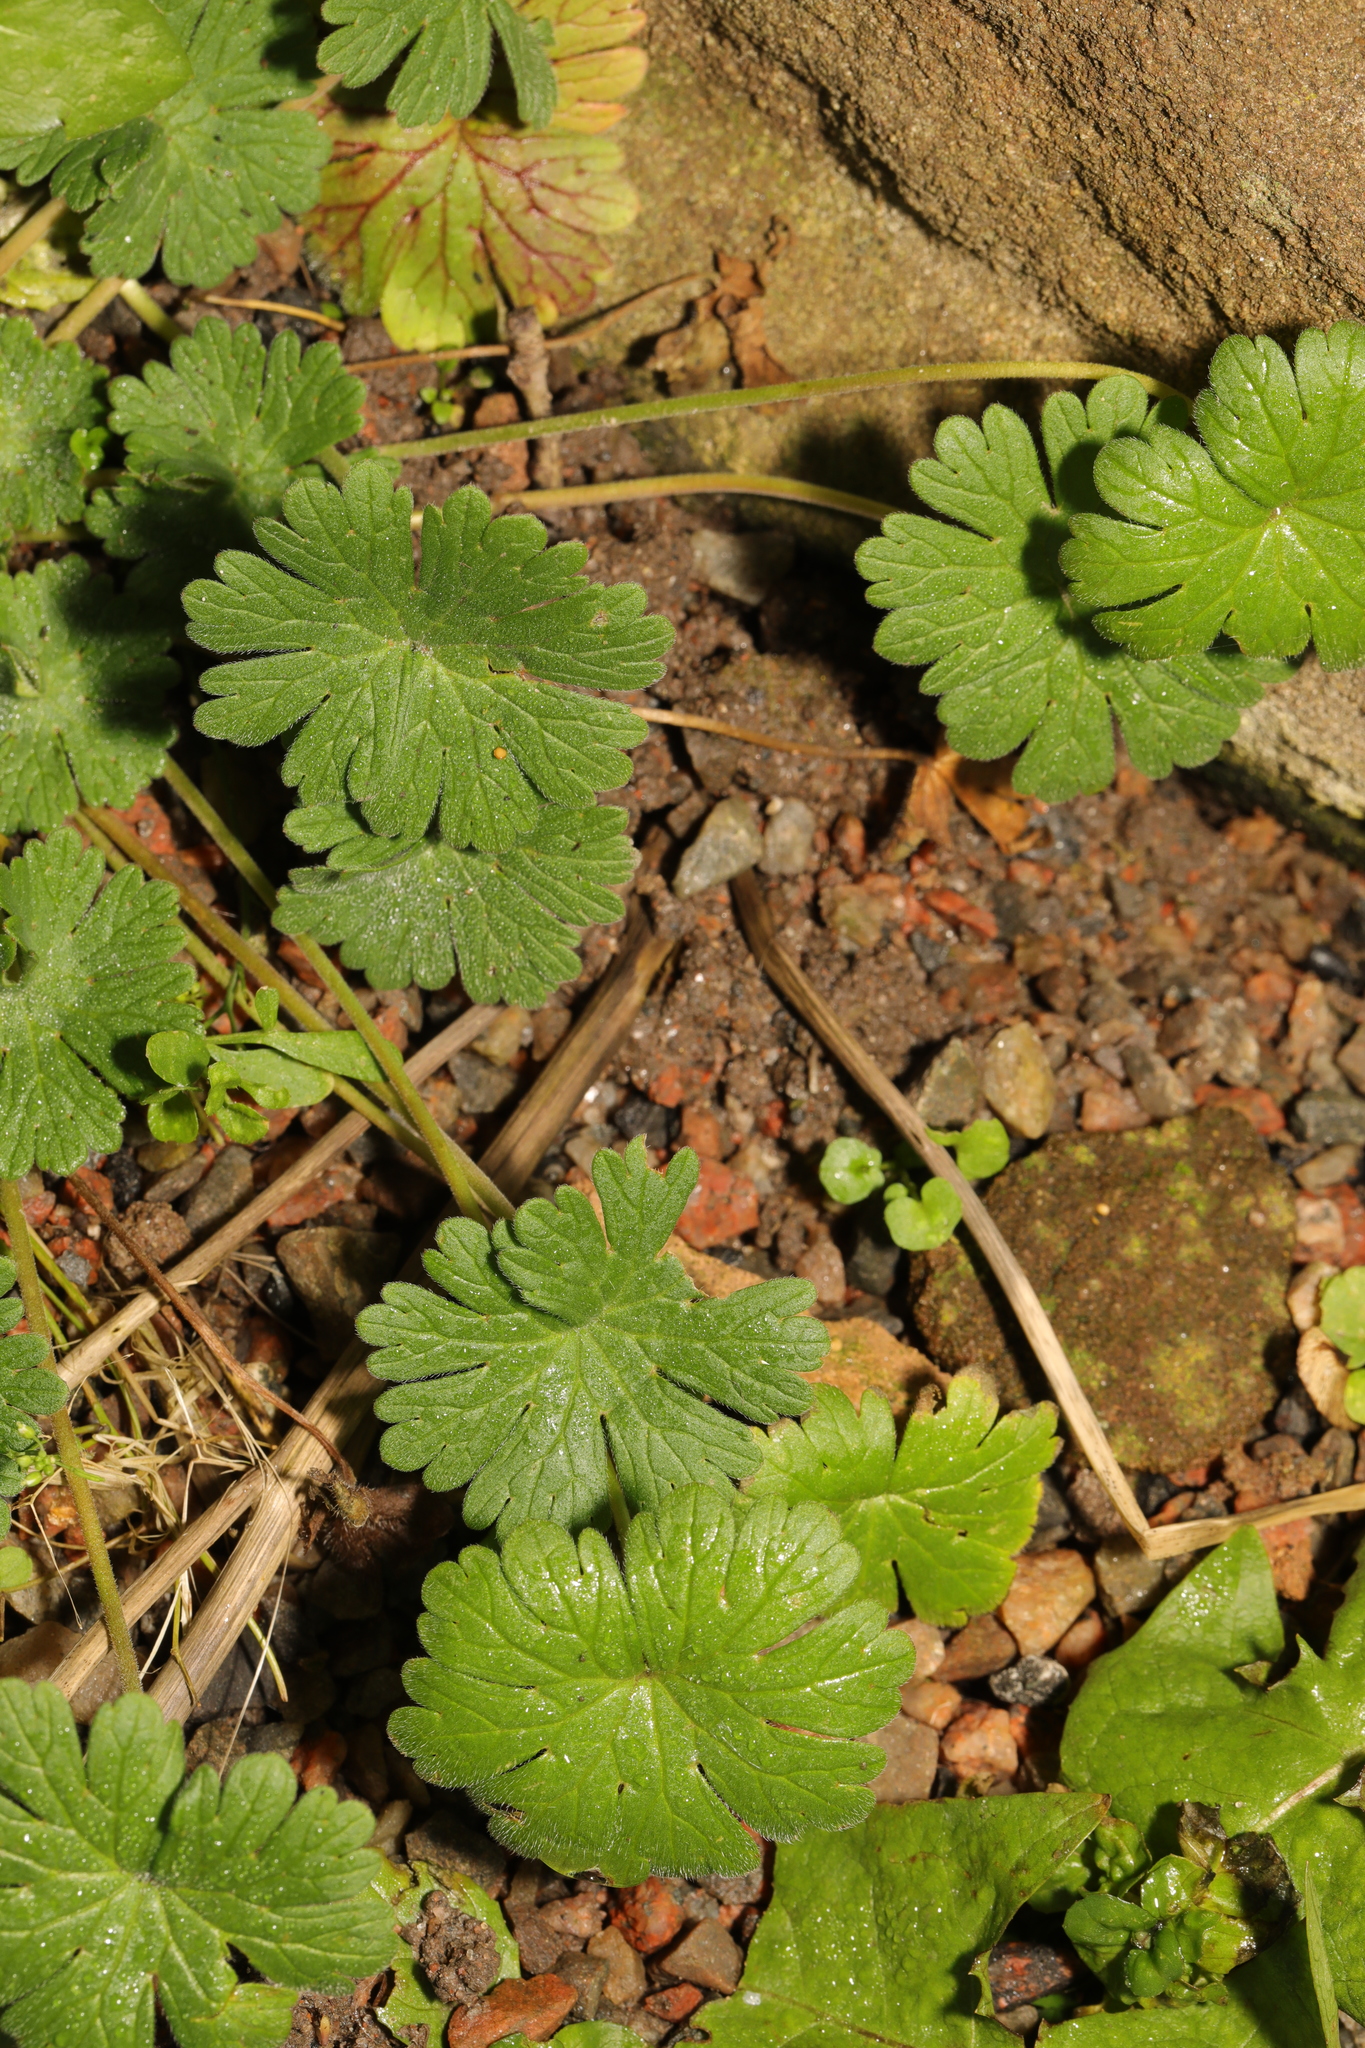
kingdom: Plantae
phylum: Tracheophyta
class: Magnoliopsida
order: Geraniales
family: Geraniaceae
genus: Geranium
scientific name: Geranium molle
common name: Dove's-foot crane's-bill
